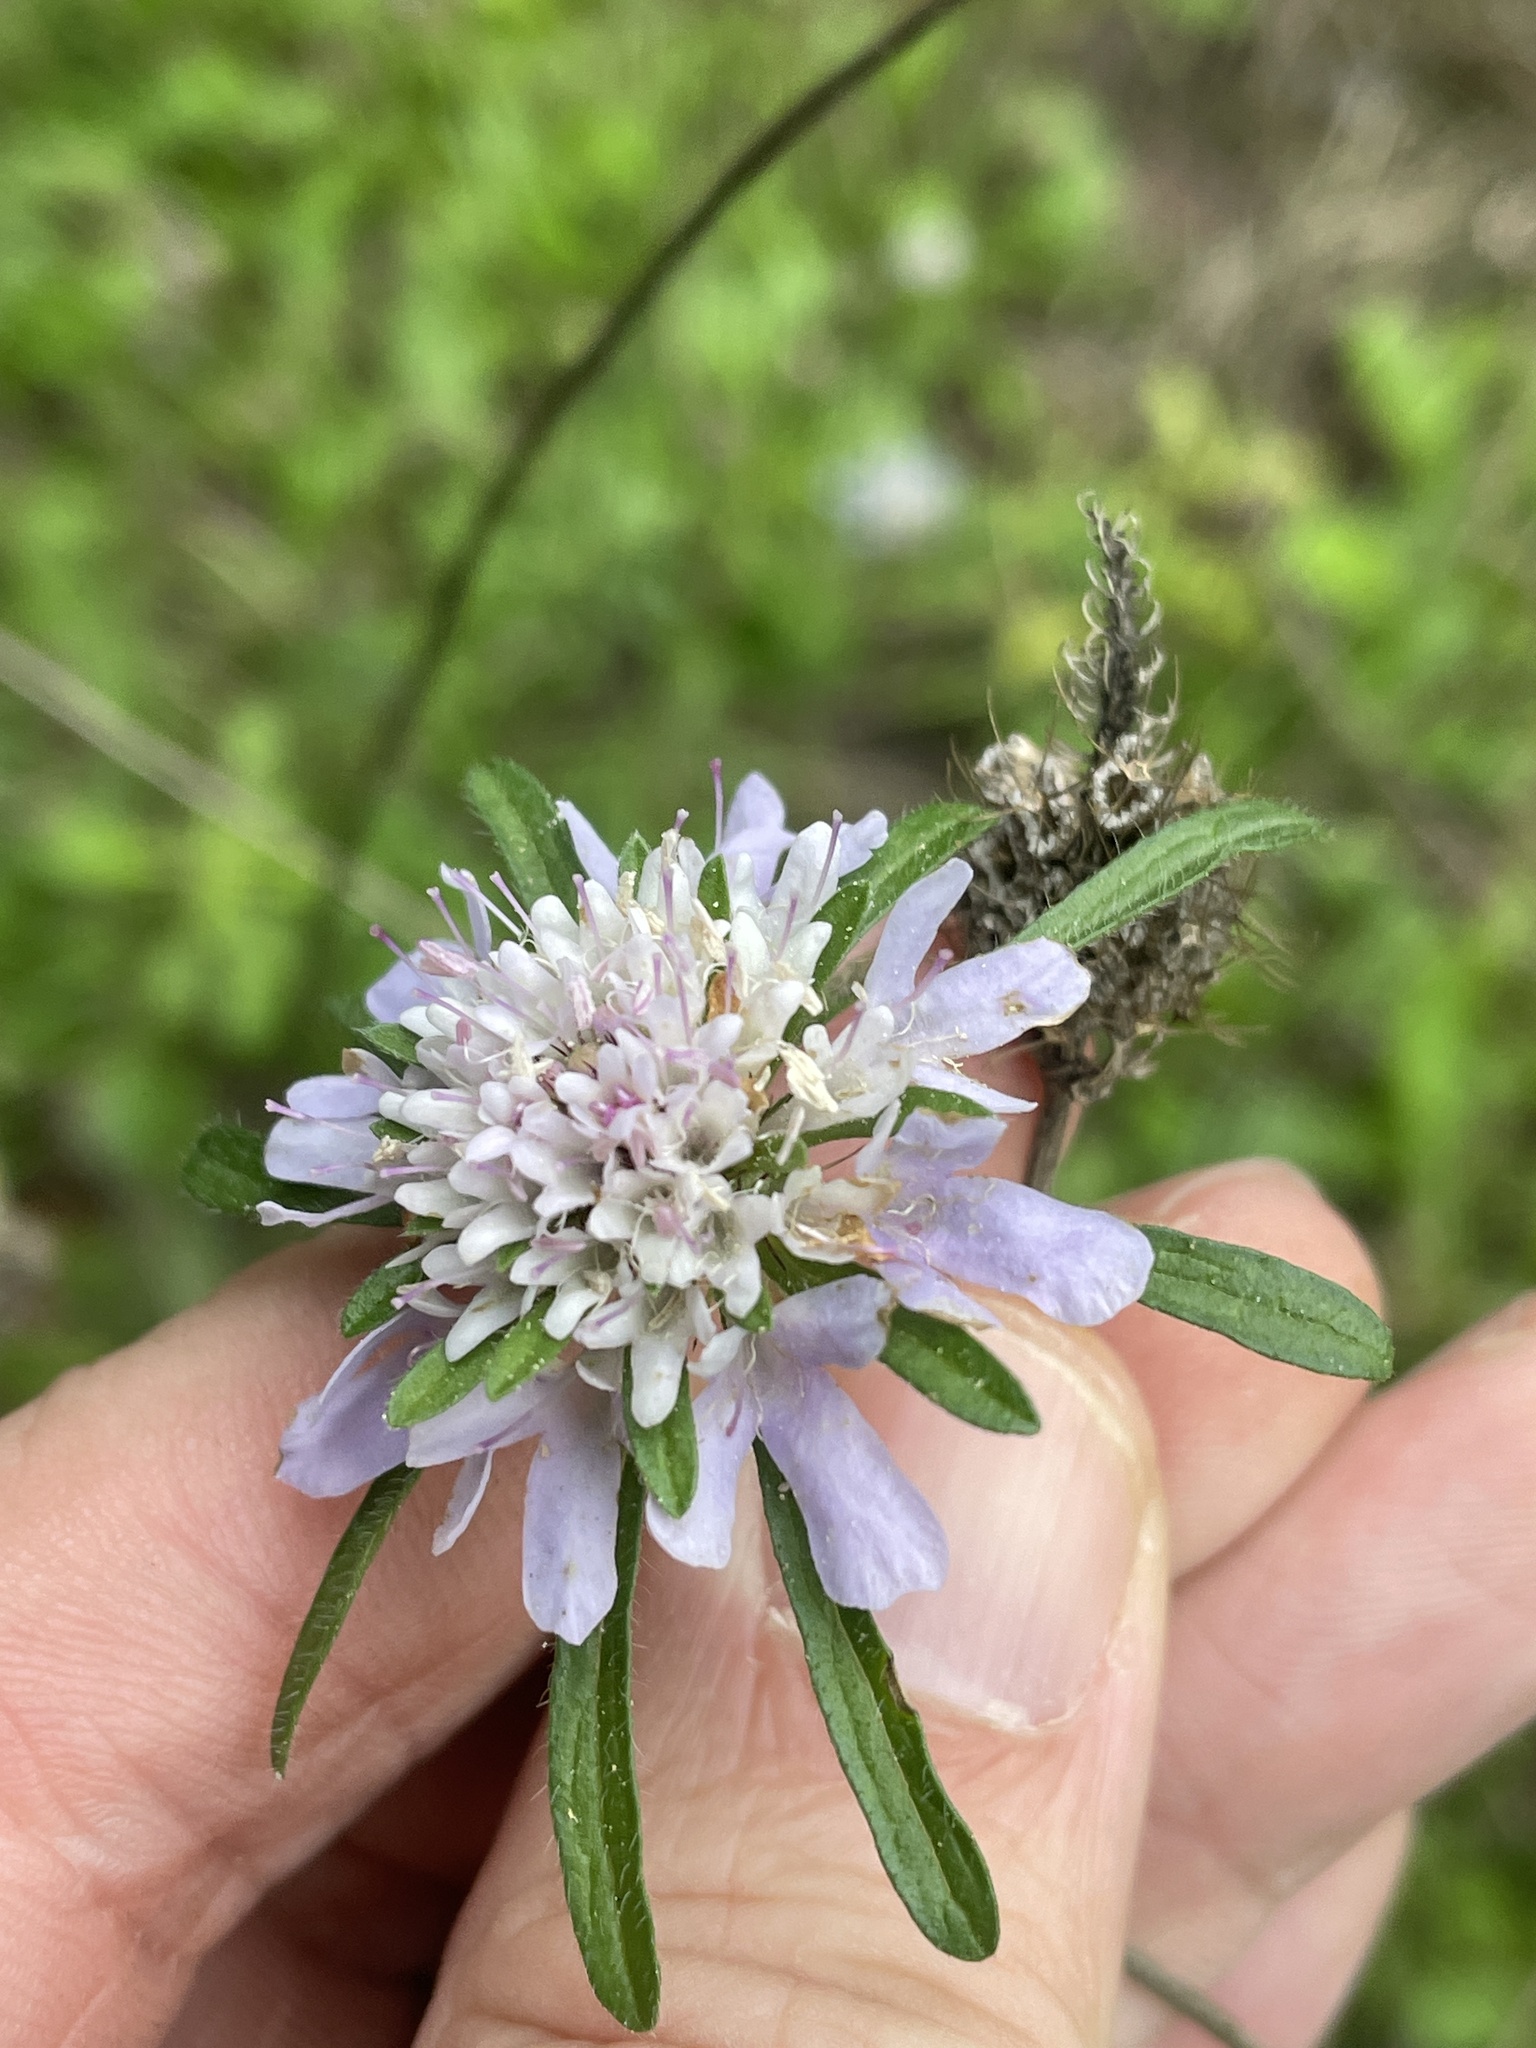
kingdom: Plantae
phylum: Tracheophyta
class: Magnoliopsida
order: Dipsacales
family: Caprifoliaceae
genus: Sixalix
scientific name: Sixalix atropurpurea
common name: Sweet scabious
